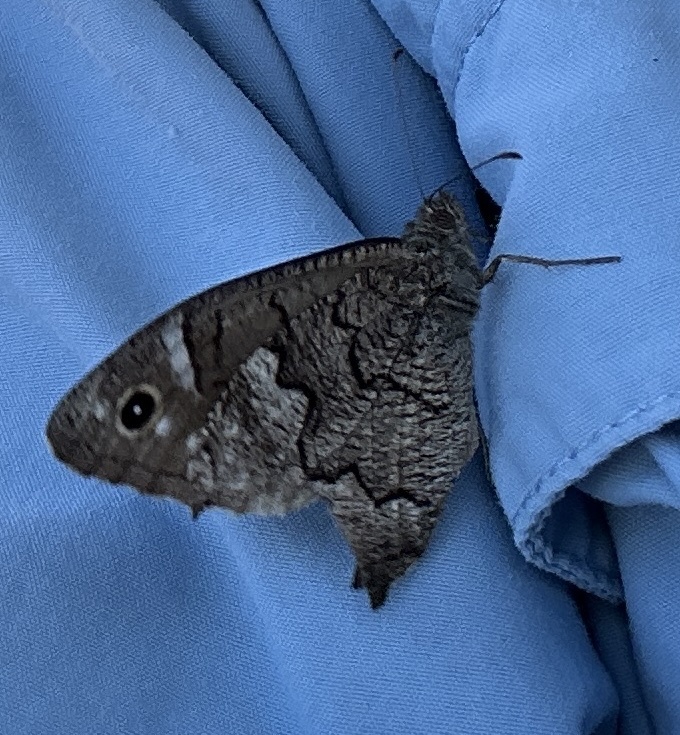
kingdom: Animalia
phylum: Arthropoda
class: Insecta
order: Lepidoptera
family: Nymphalidae
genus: Hipparchia
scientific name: Hipparchia fatua
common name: Freyer's grayling
